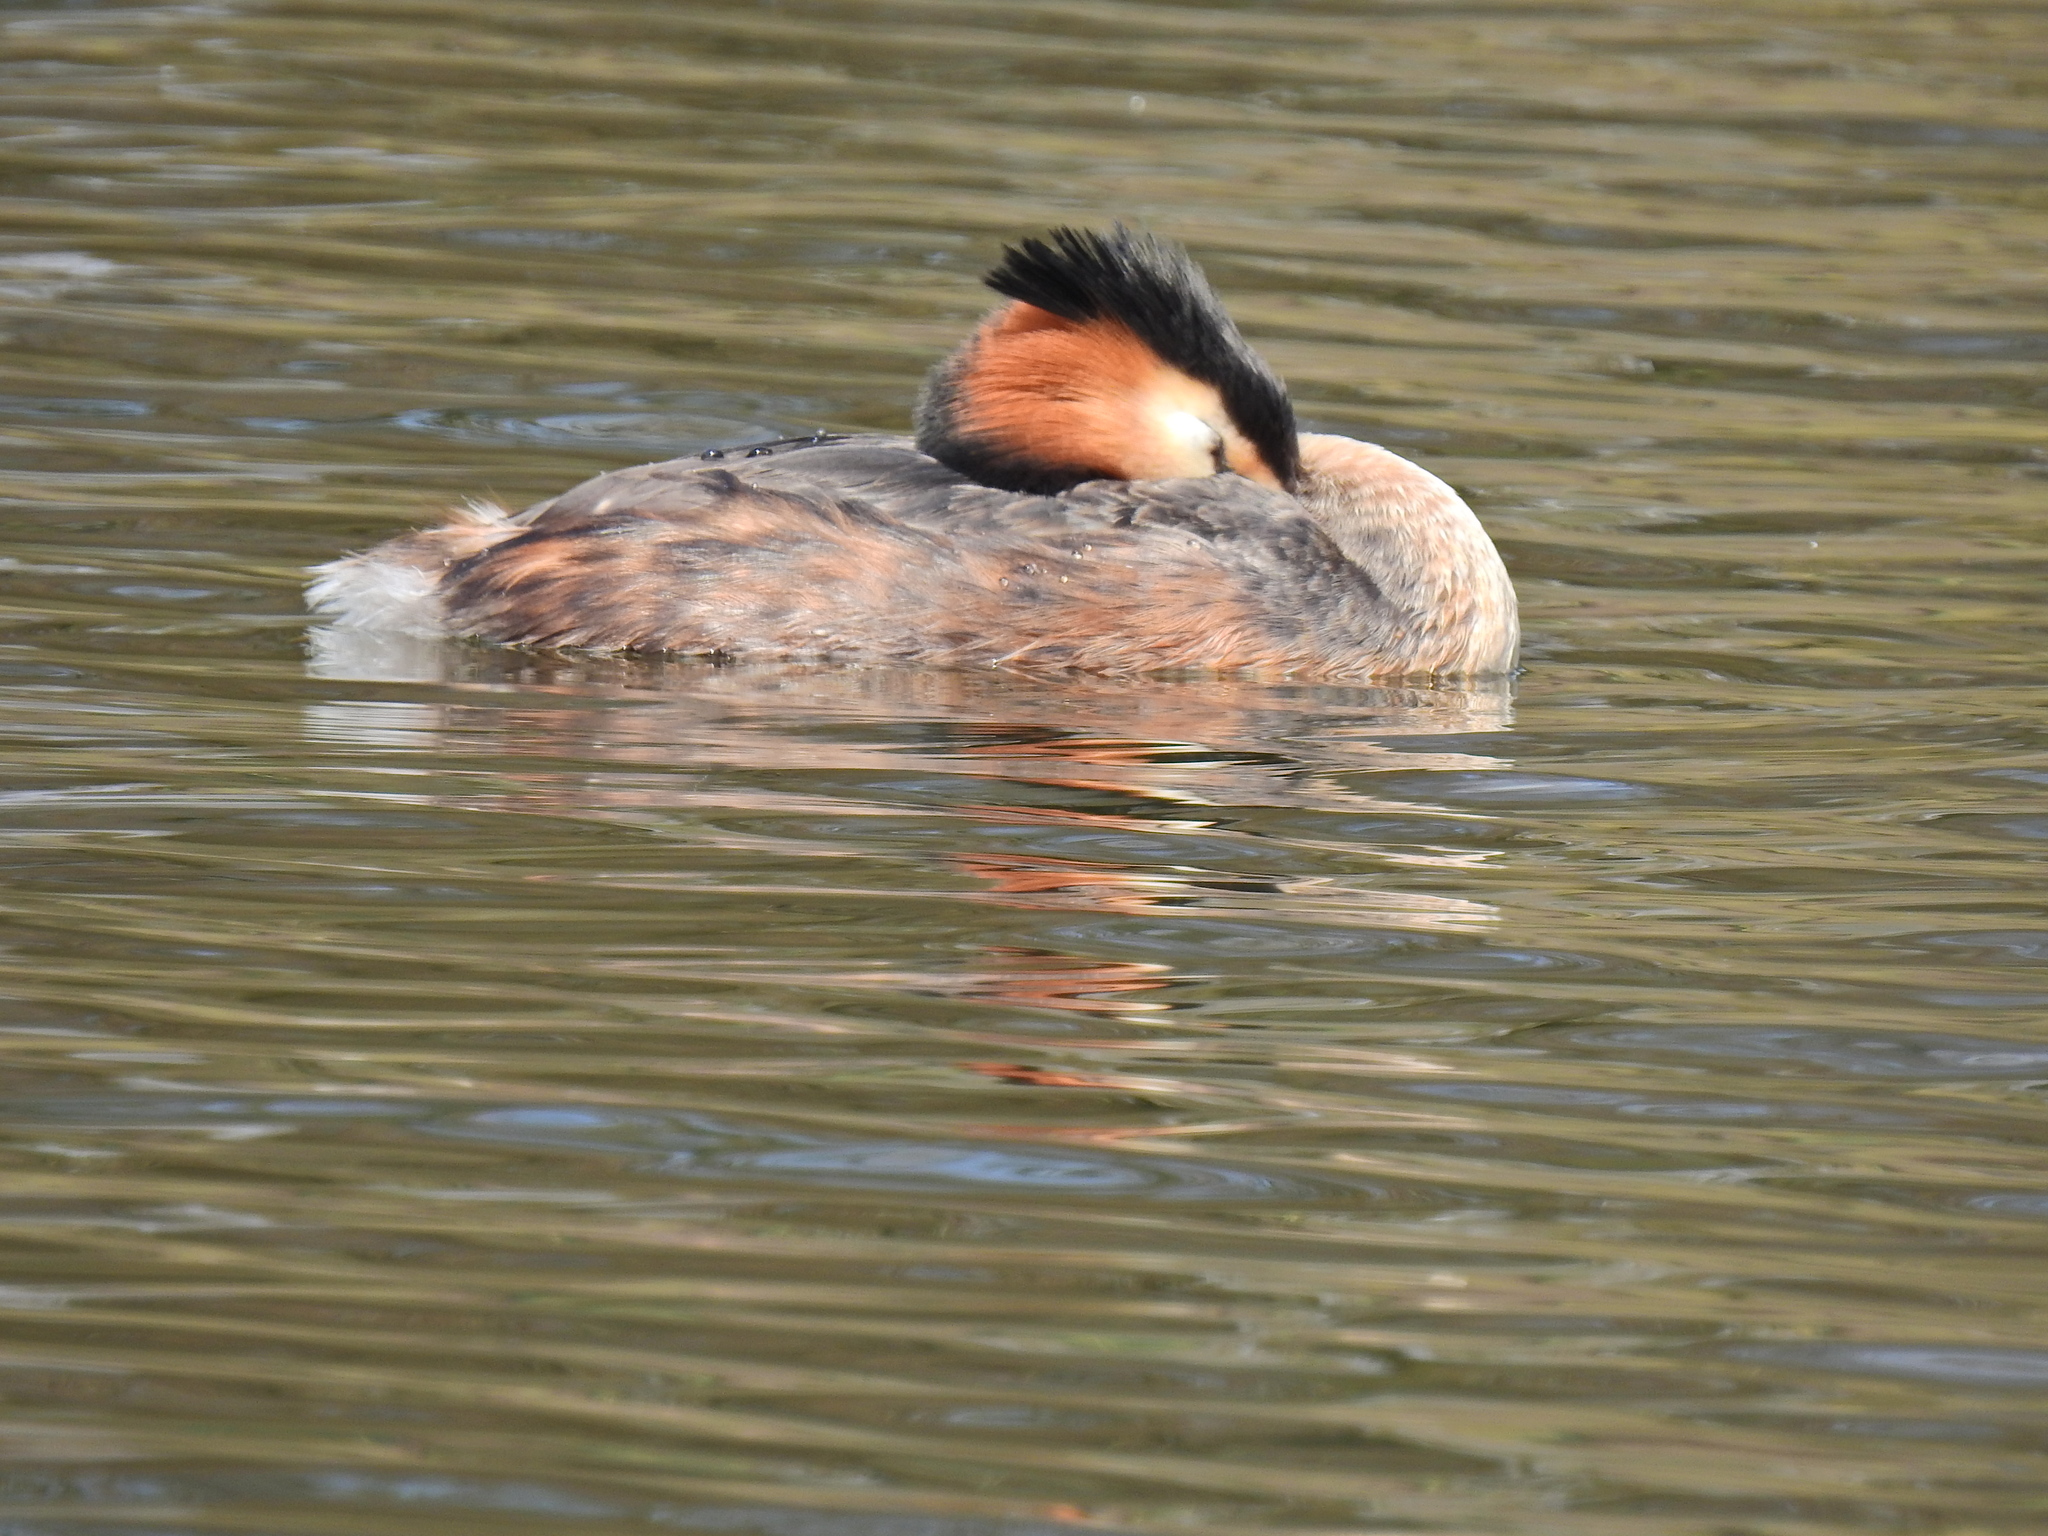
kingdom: Animalia
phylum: Chordata
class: Aves
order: Podicipediformes
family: Podicipedidae
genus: Podiceps
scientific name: Podiceps cristatus
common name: Great crested grebe
